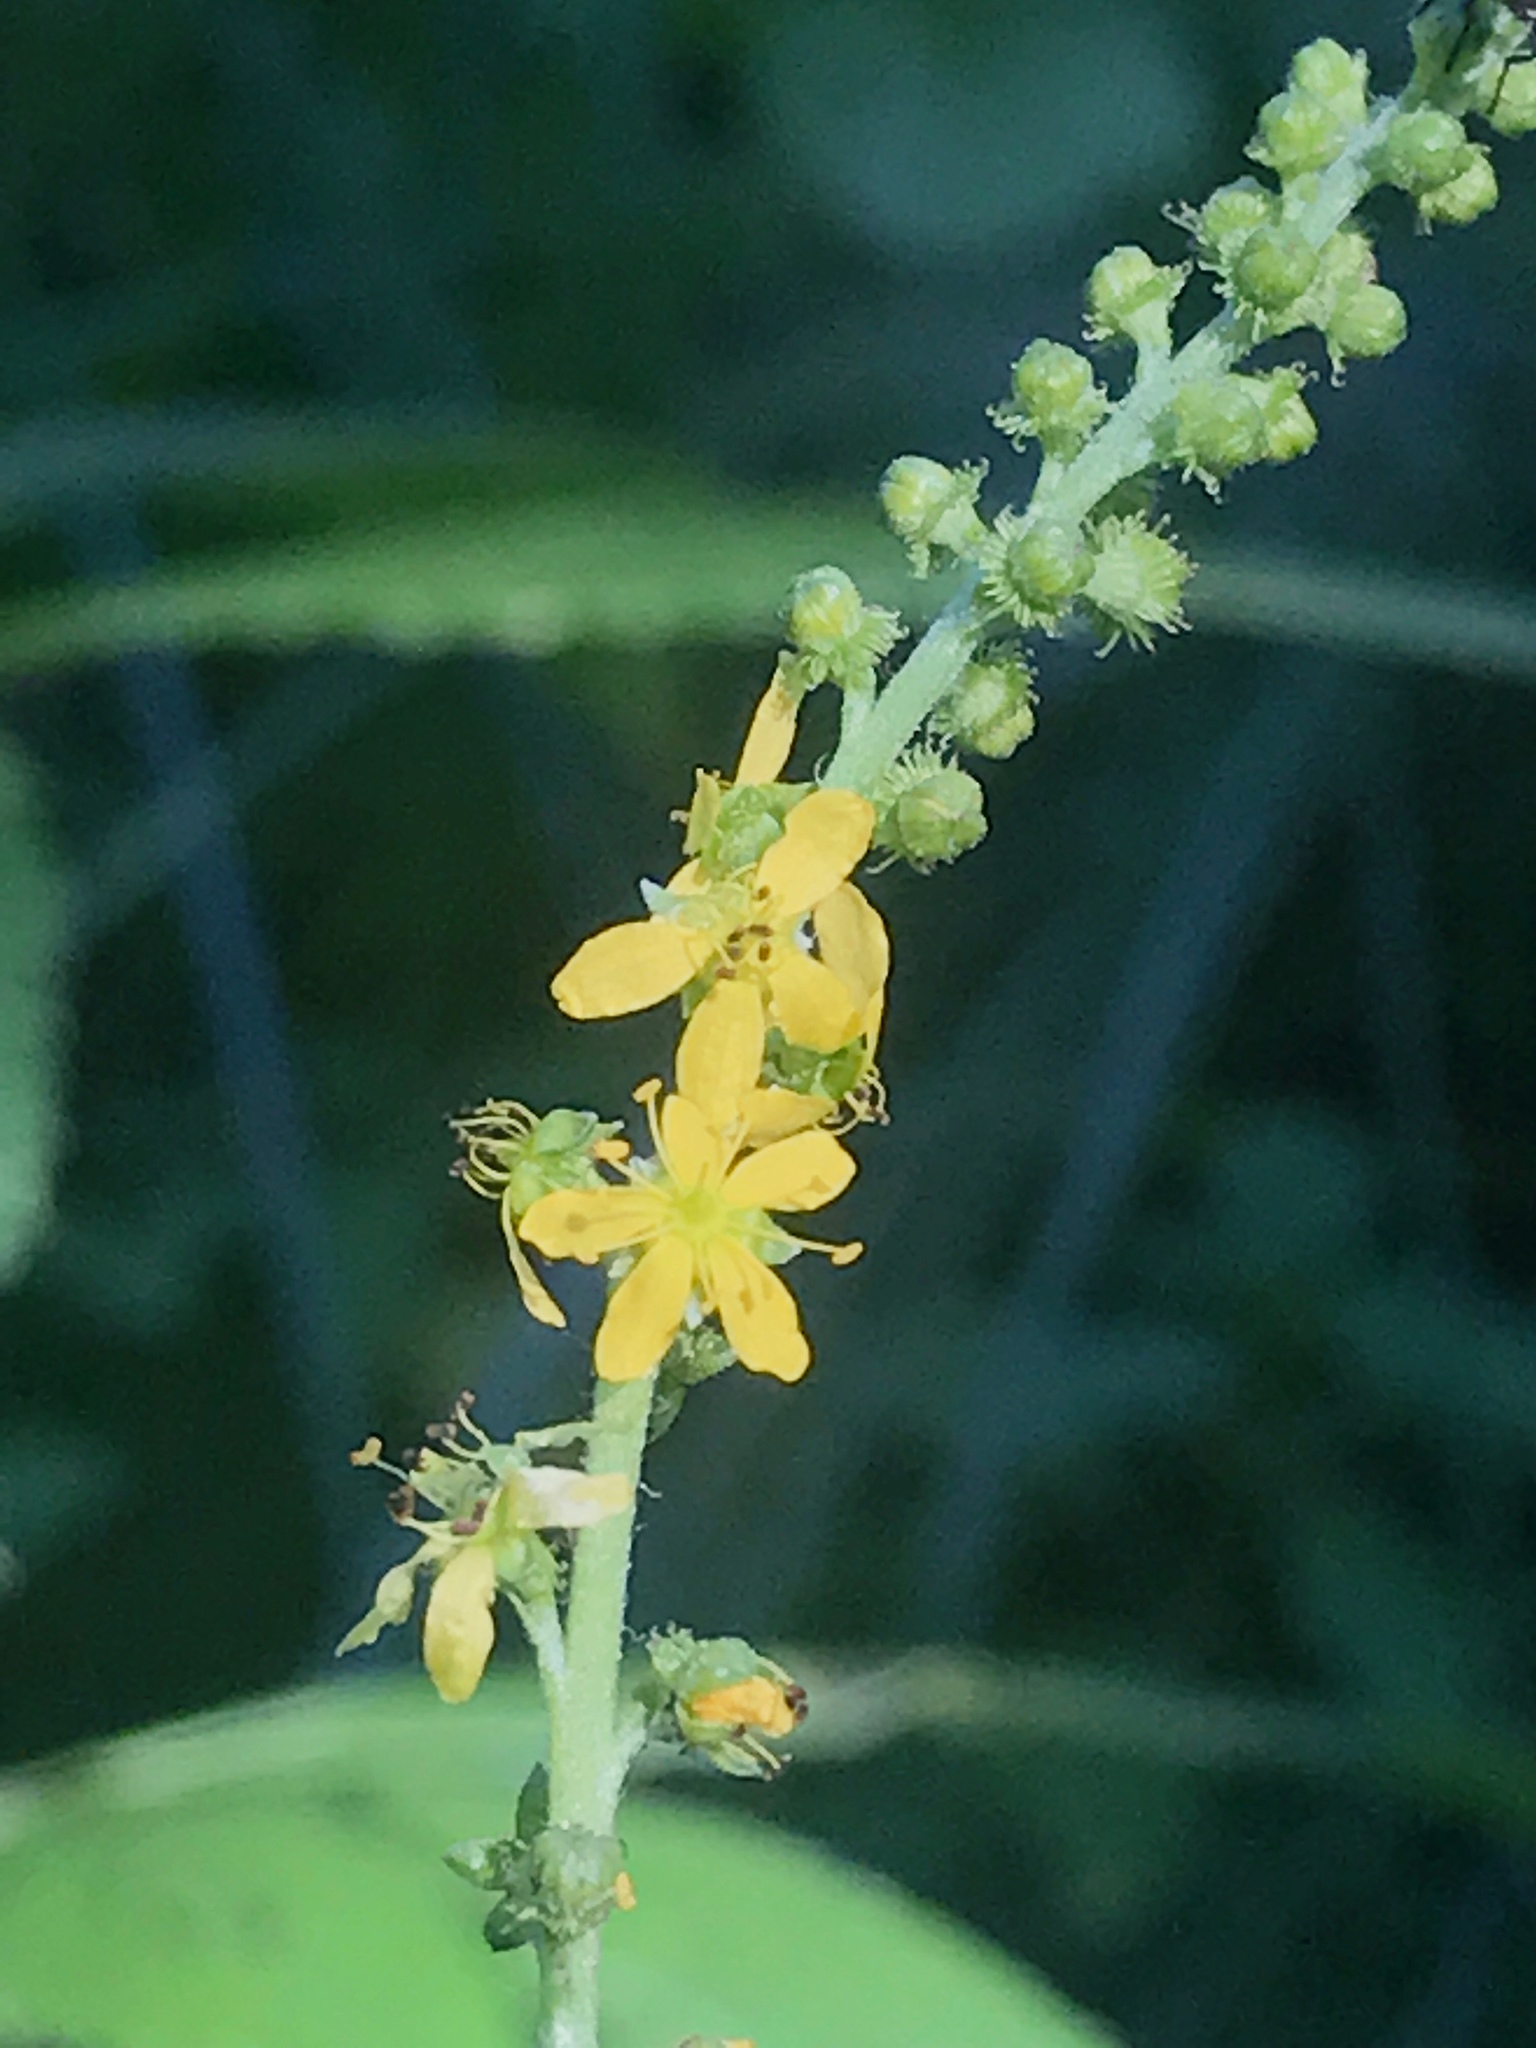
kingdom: Plantae
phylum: Tracheophyta
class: Magnoliopsida
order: Rosales
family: Rosaceae
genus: Agrimonia
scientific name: Agrimonia parviflora
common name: Harvest-lice
